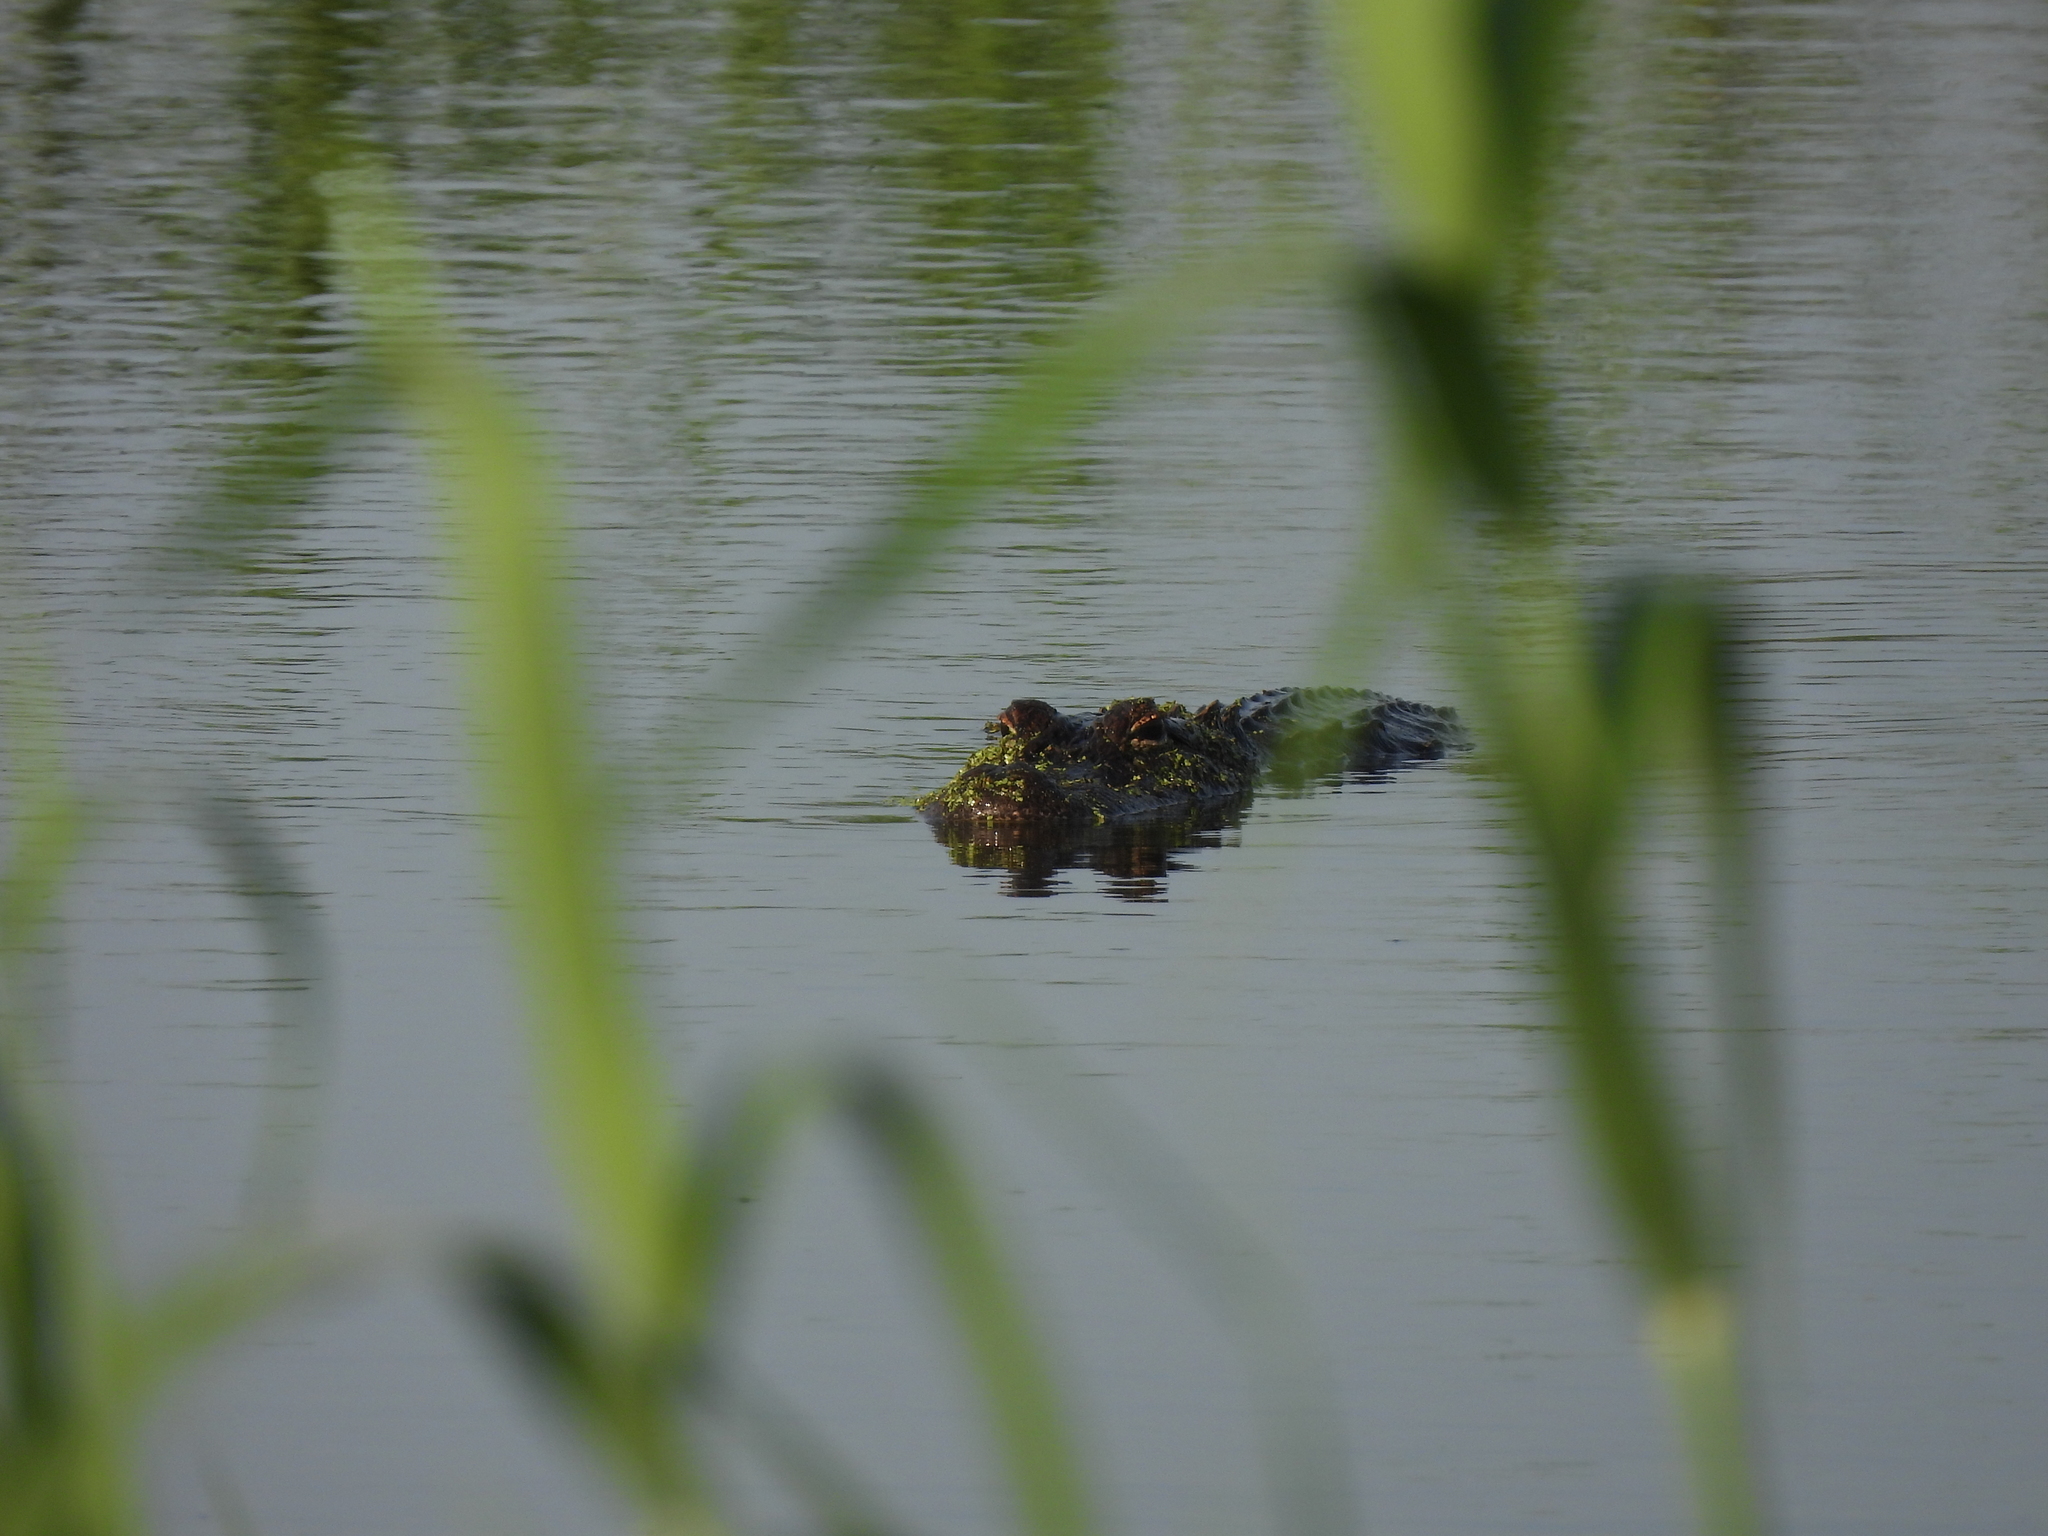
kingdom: Animalia
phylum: Chordata
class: Crocodylia
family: Alligatoridae
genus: Alligator
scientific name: Alligator mississippiensis
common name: American alligator
